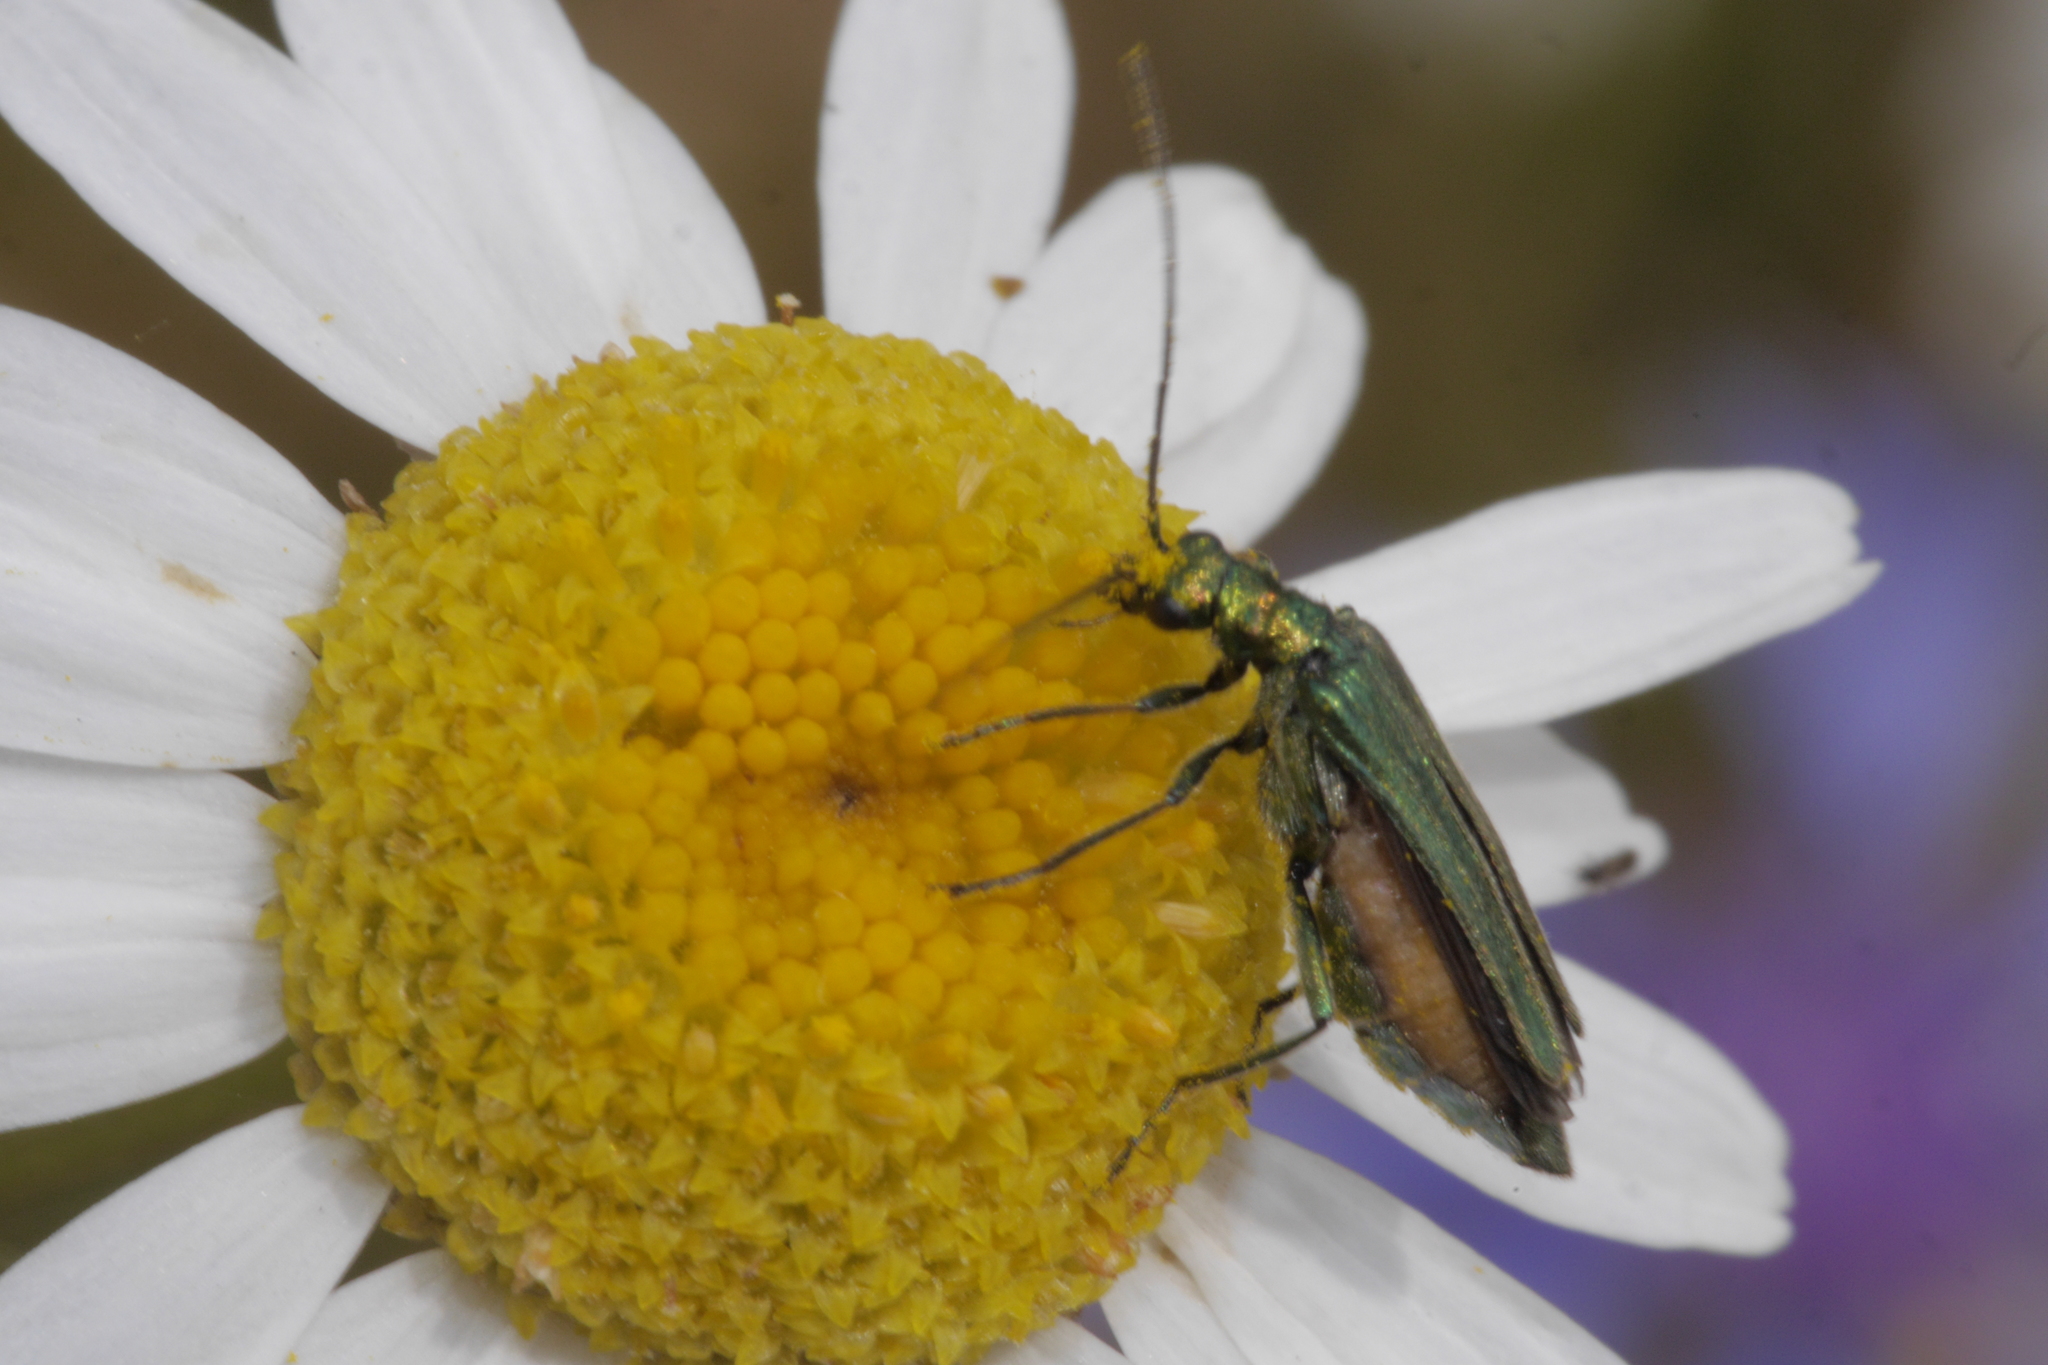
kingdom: Animalia
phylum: Arthropoda
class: Insecta
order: Coleoptera
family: Oedemeridae
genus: Oedemera
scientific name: Oedemera nobilis
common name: Swollen-thighed beetle
